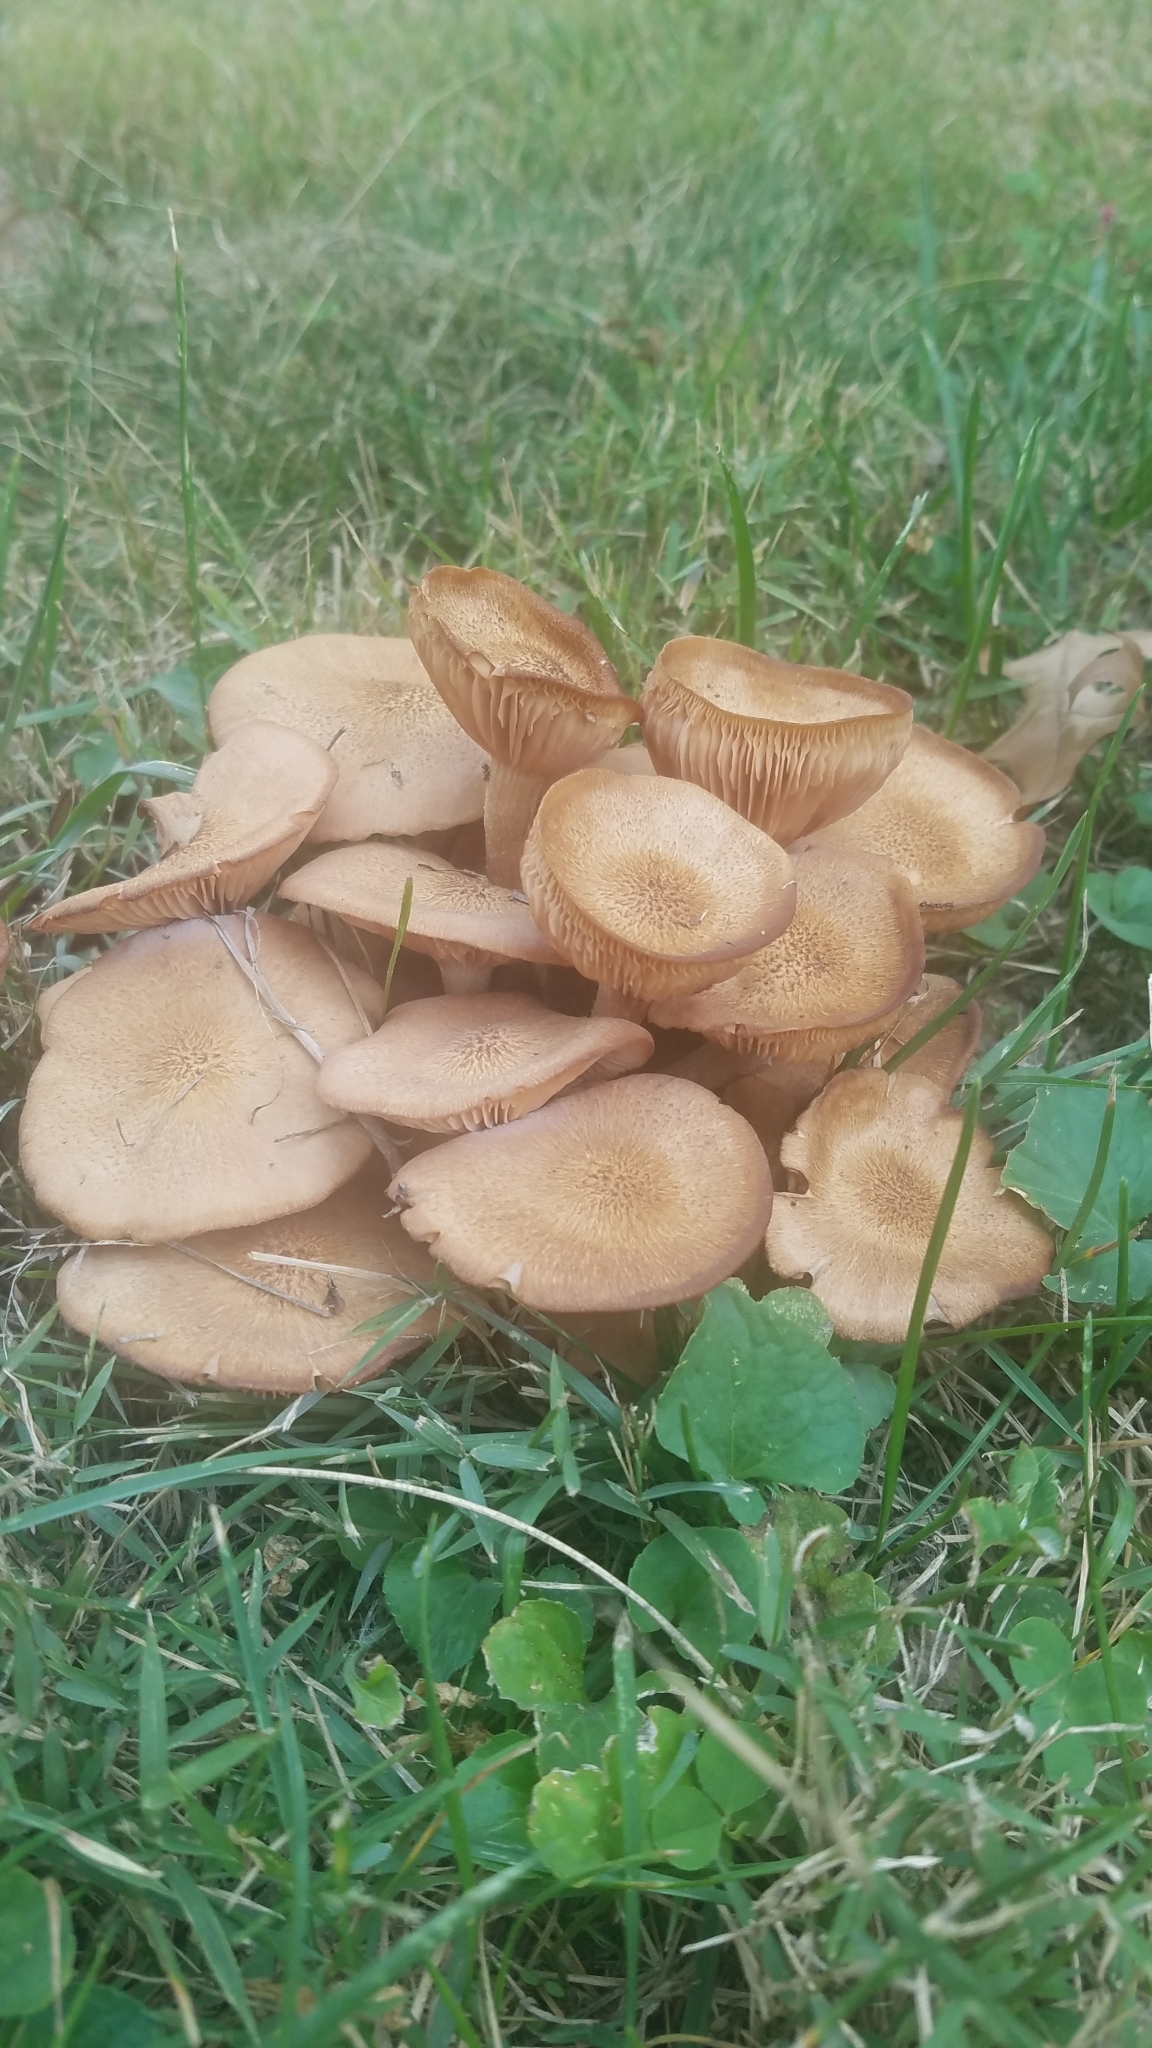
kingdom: Fungi
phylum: Basidiomycota
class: Agaricomycetes
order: Agaricales
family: Physalacriaceae
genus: Desarmillaria
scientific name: Desarmillaria caespitosa
